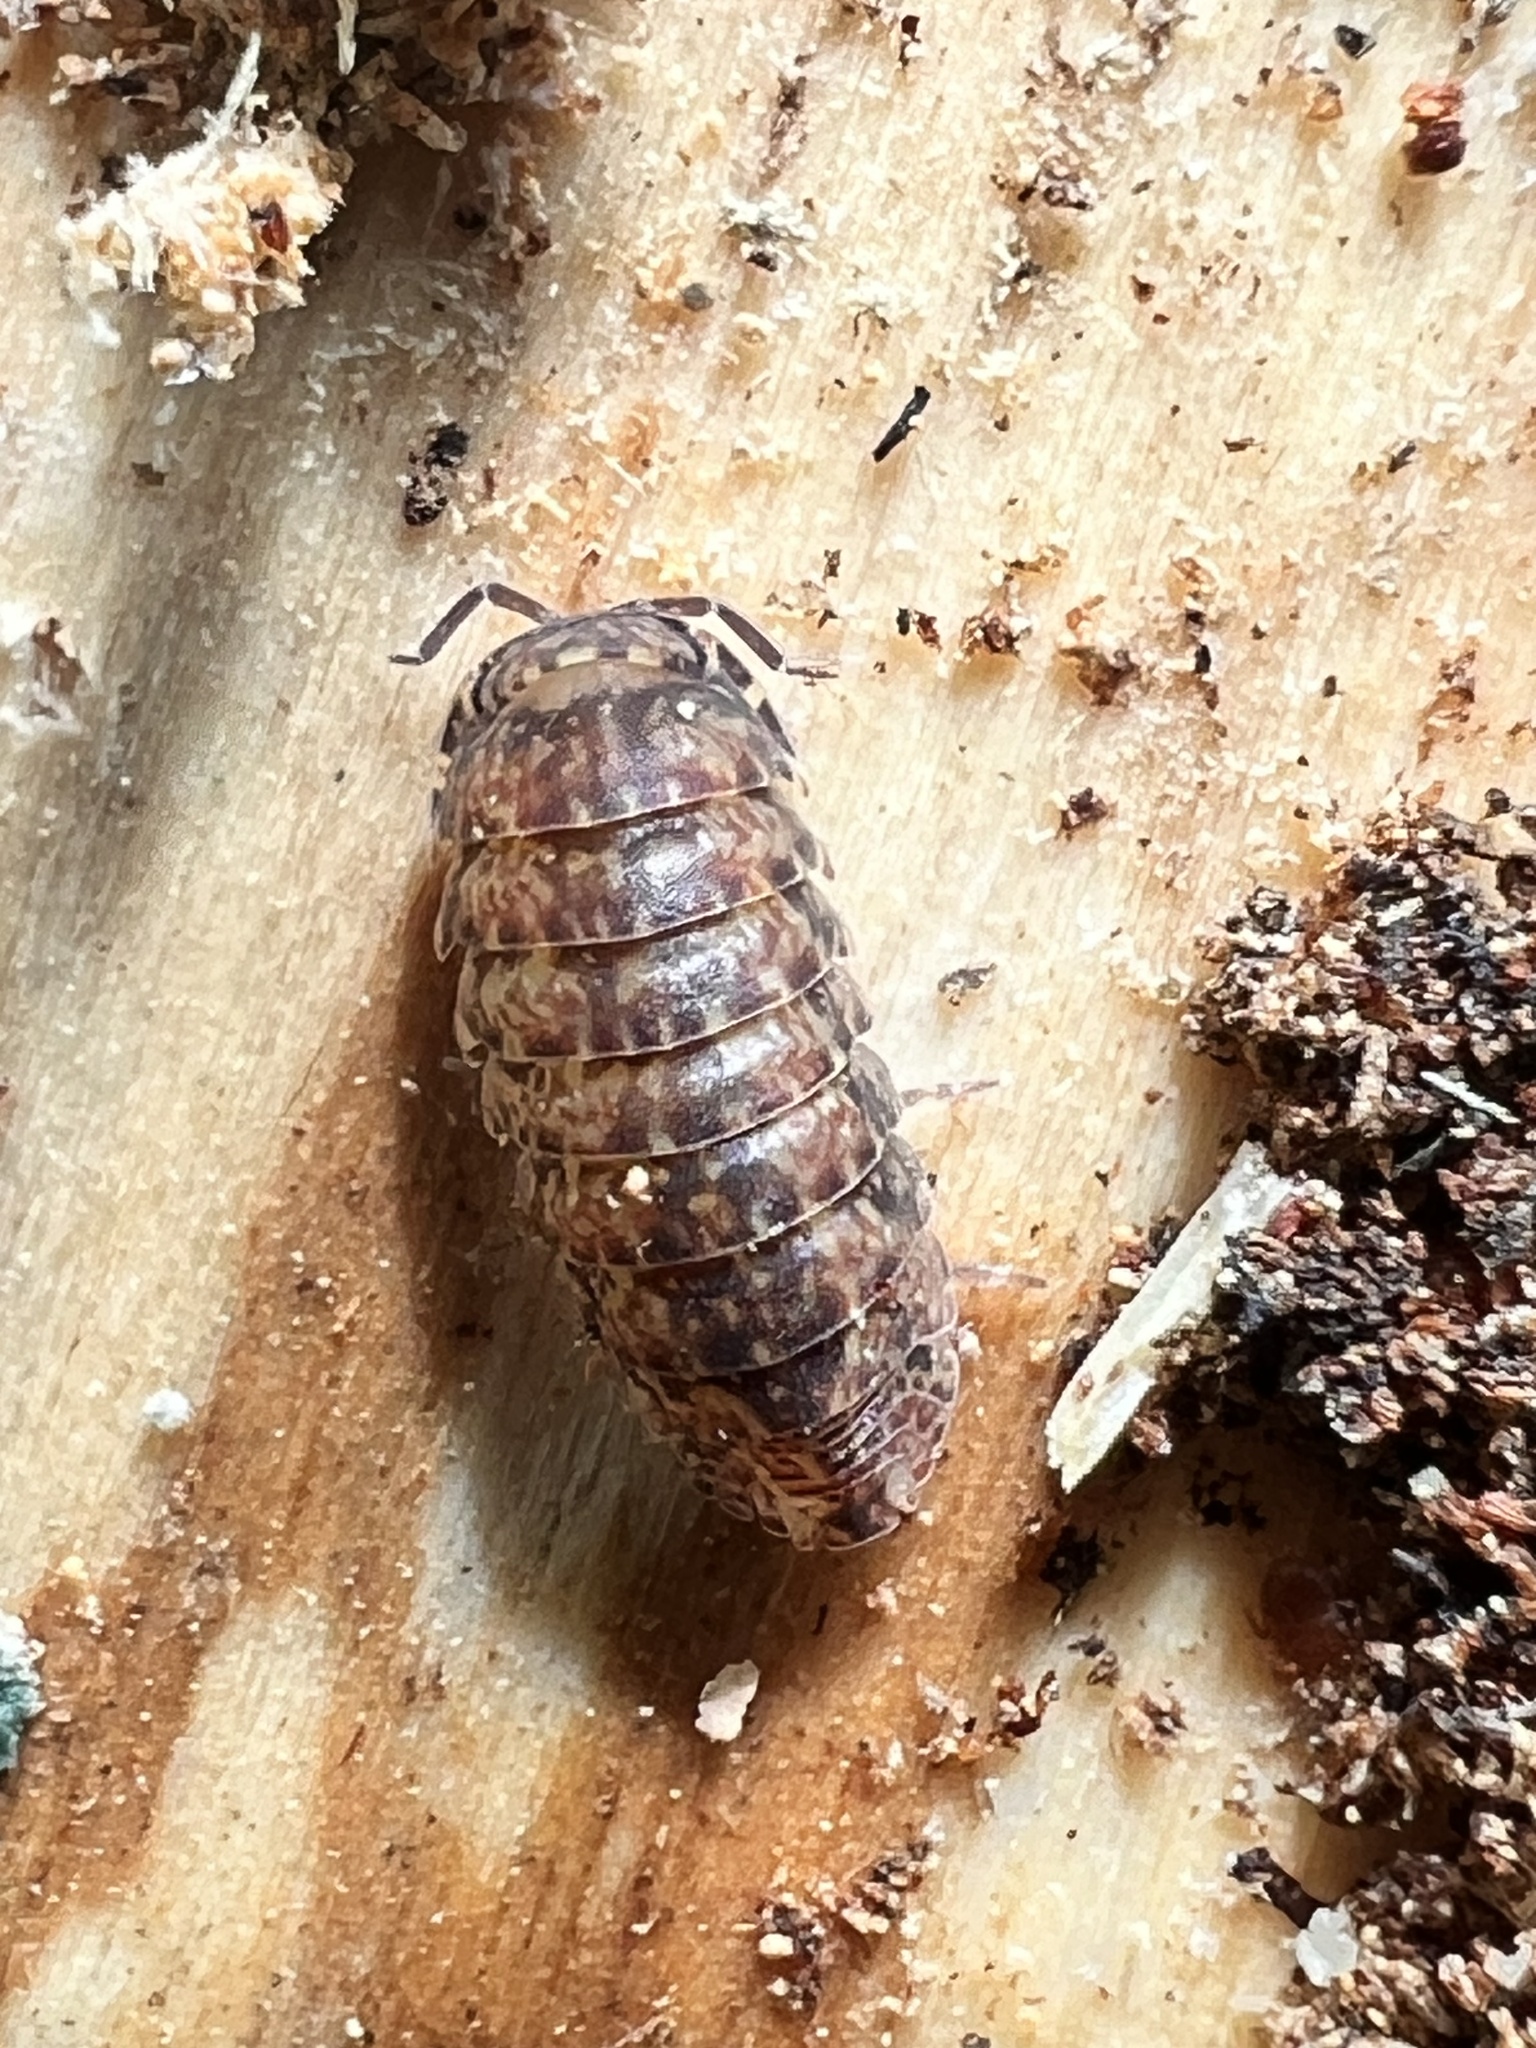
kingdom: Animalia
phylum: Arthropoda
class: Malacostraca
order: Isopoda
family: Armadillidae
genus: Cubaris
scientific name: Cubaris tarangensis
